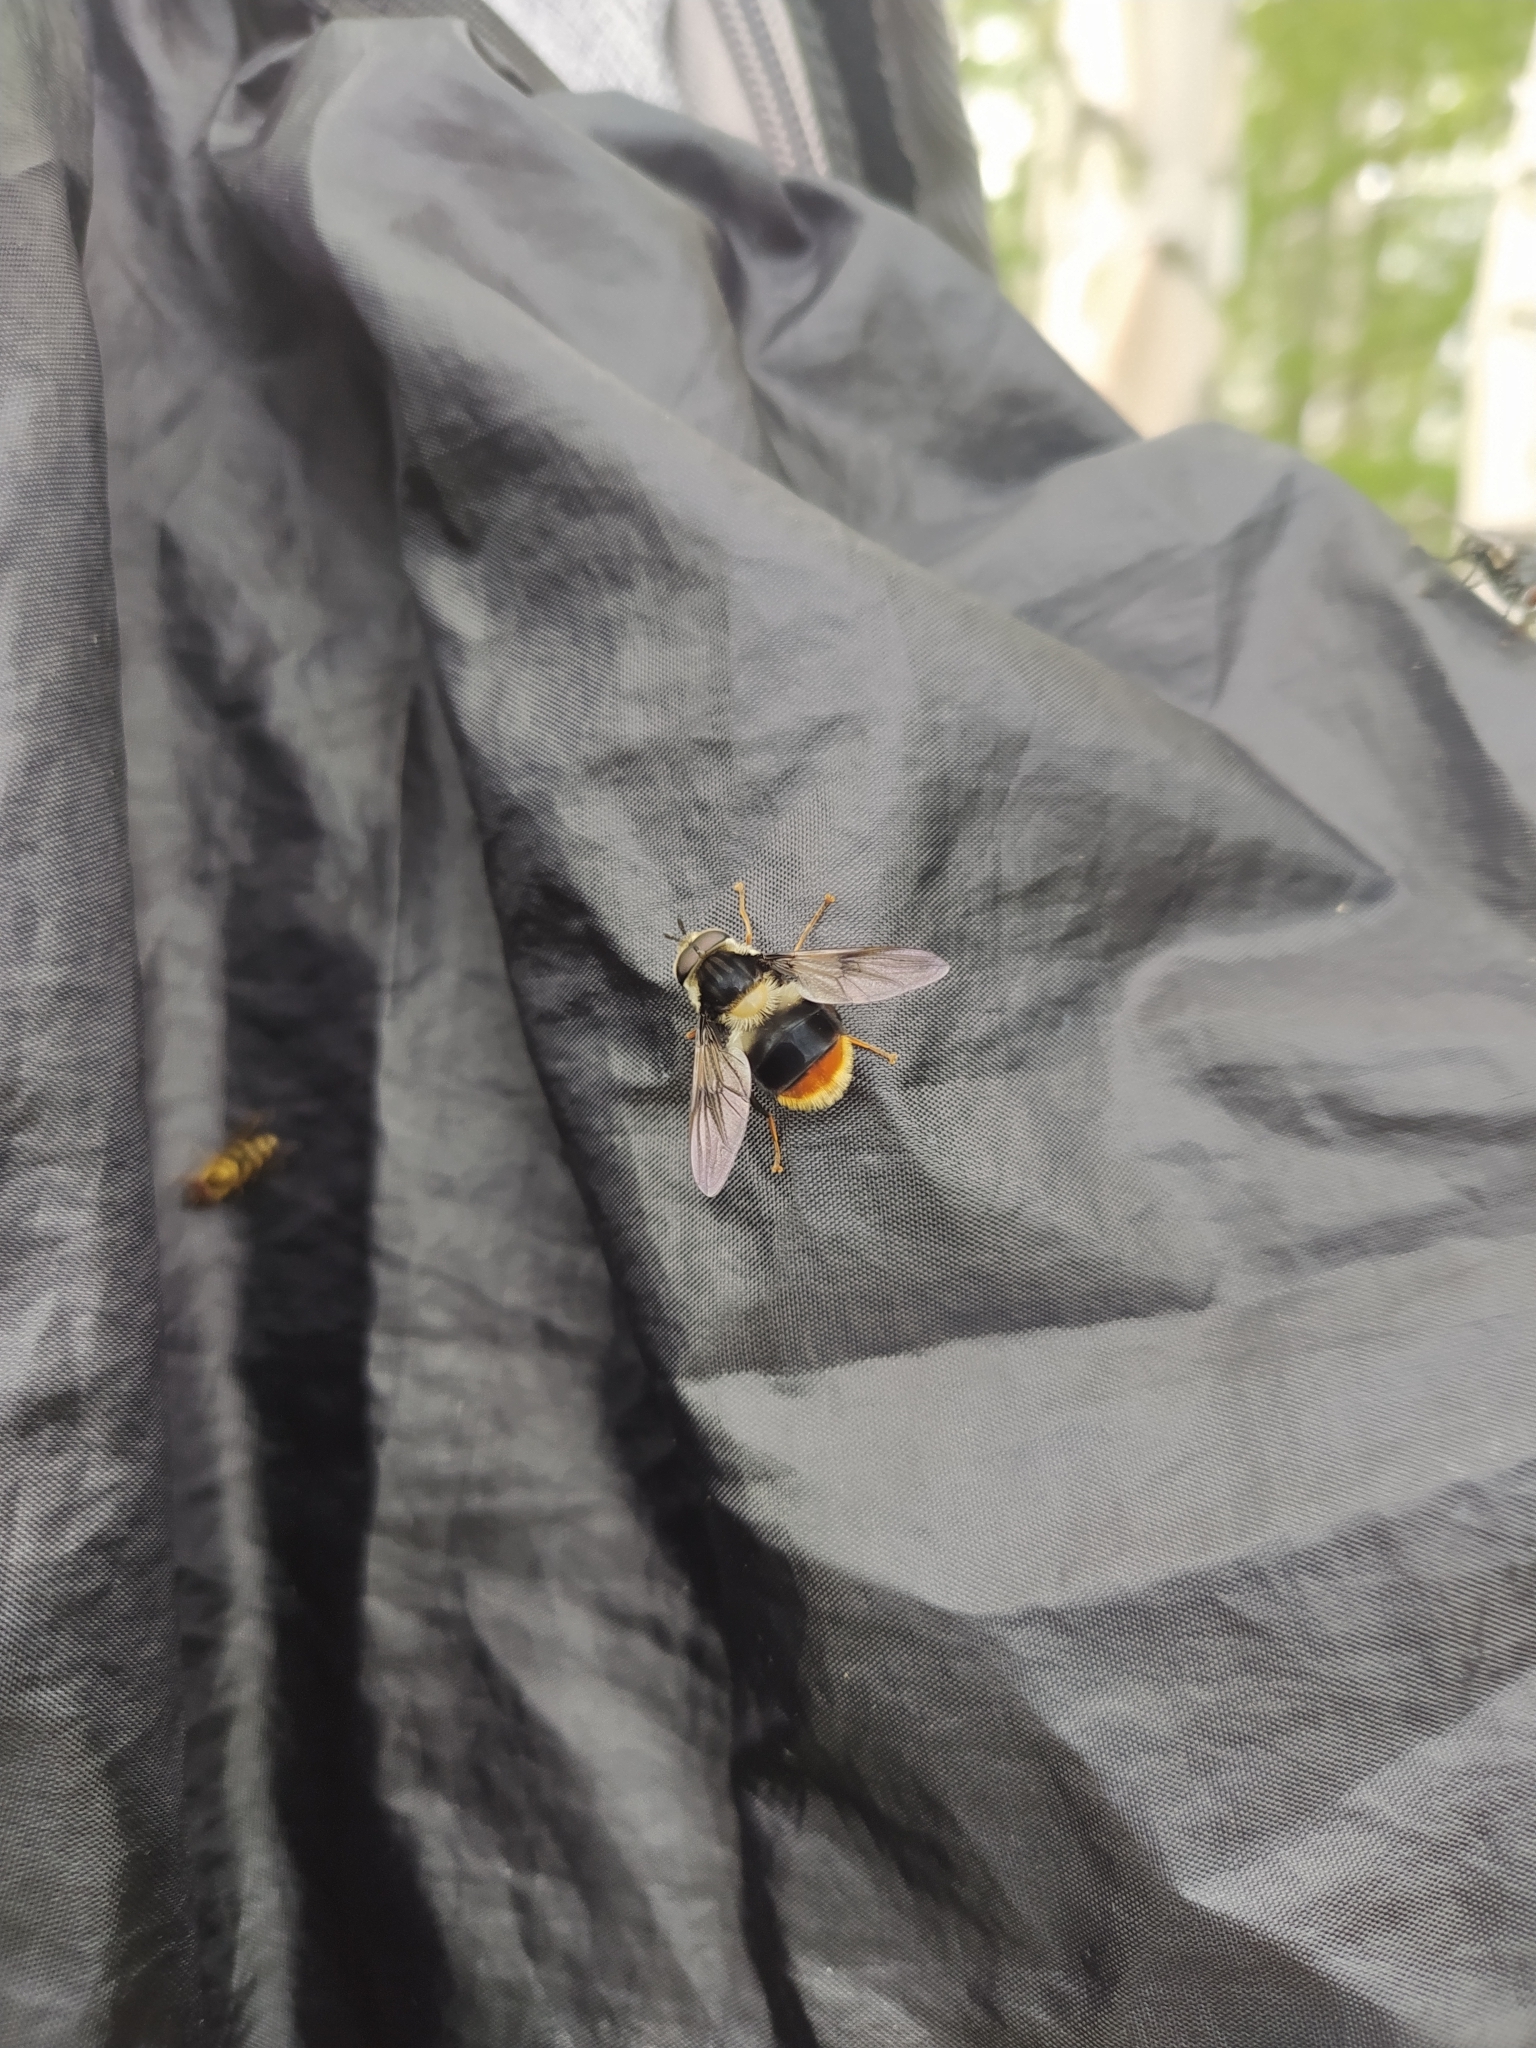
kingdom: Animalia
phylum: Arthropoda
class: Insecta
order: Diptera
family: Syrphidae
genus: Eriozona
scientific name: Eriozona syrphoides
